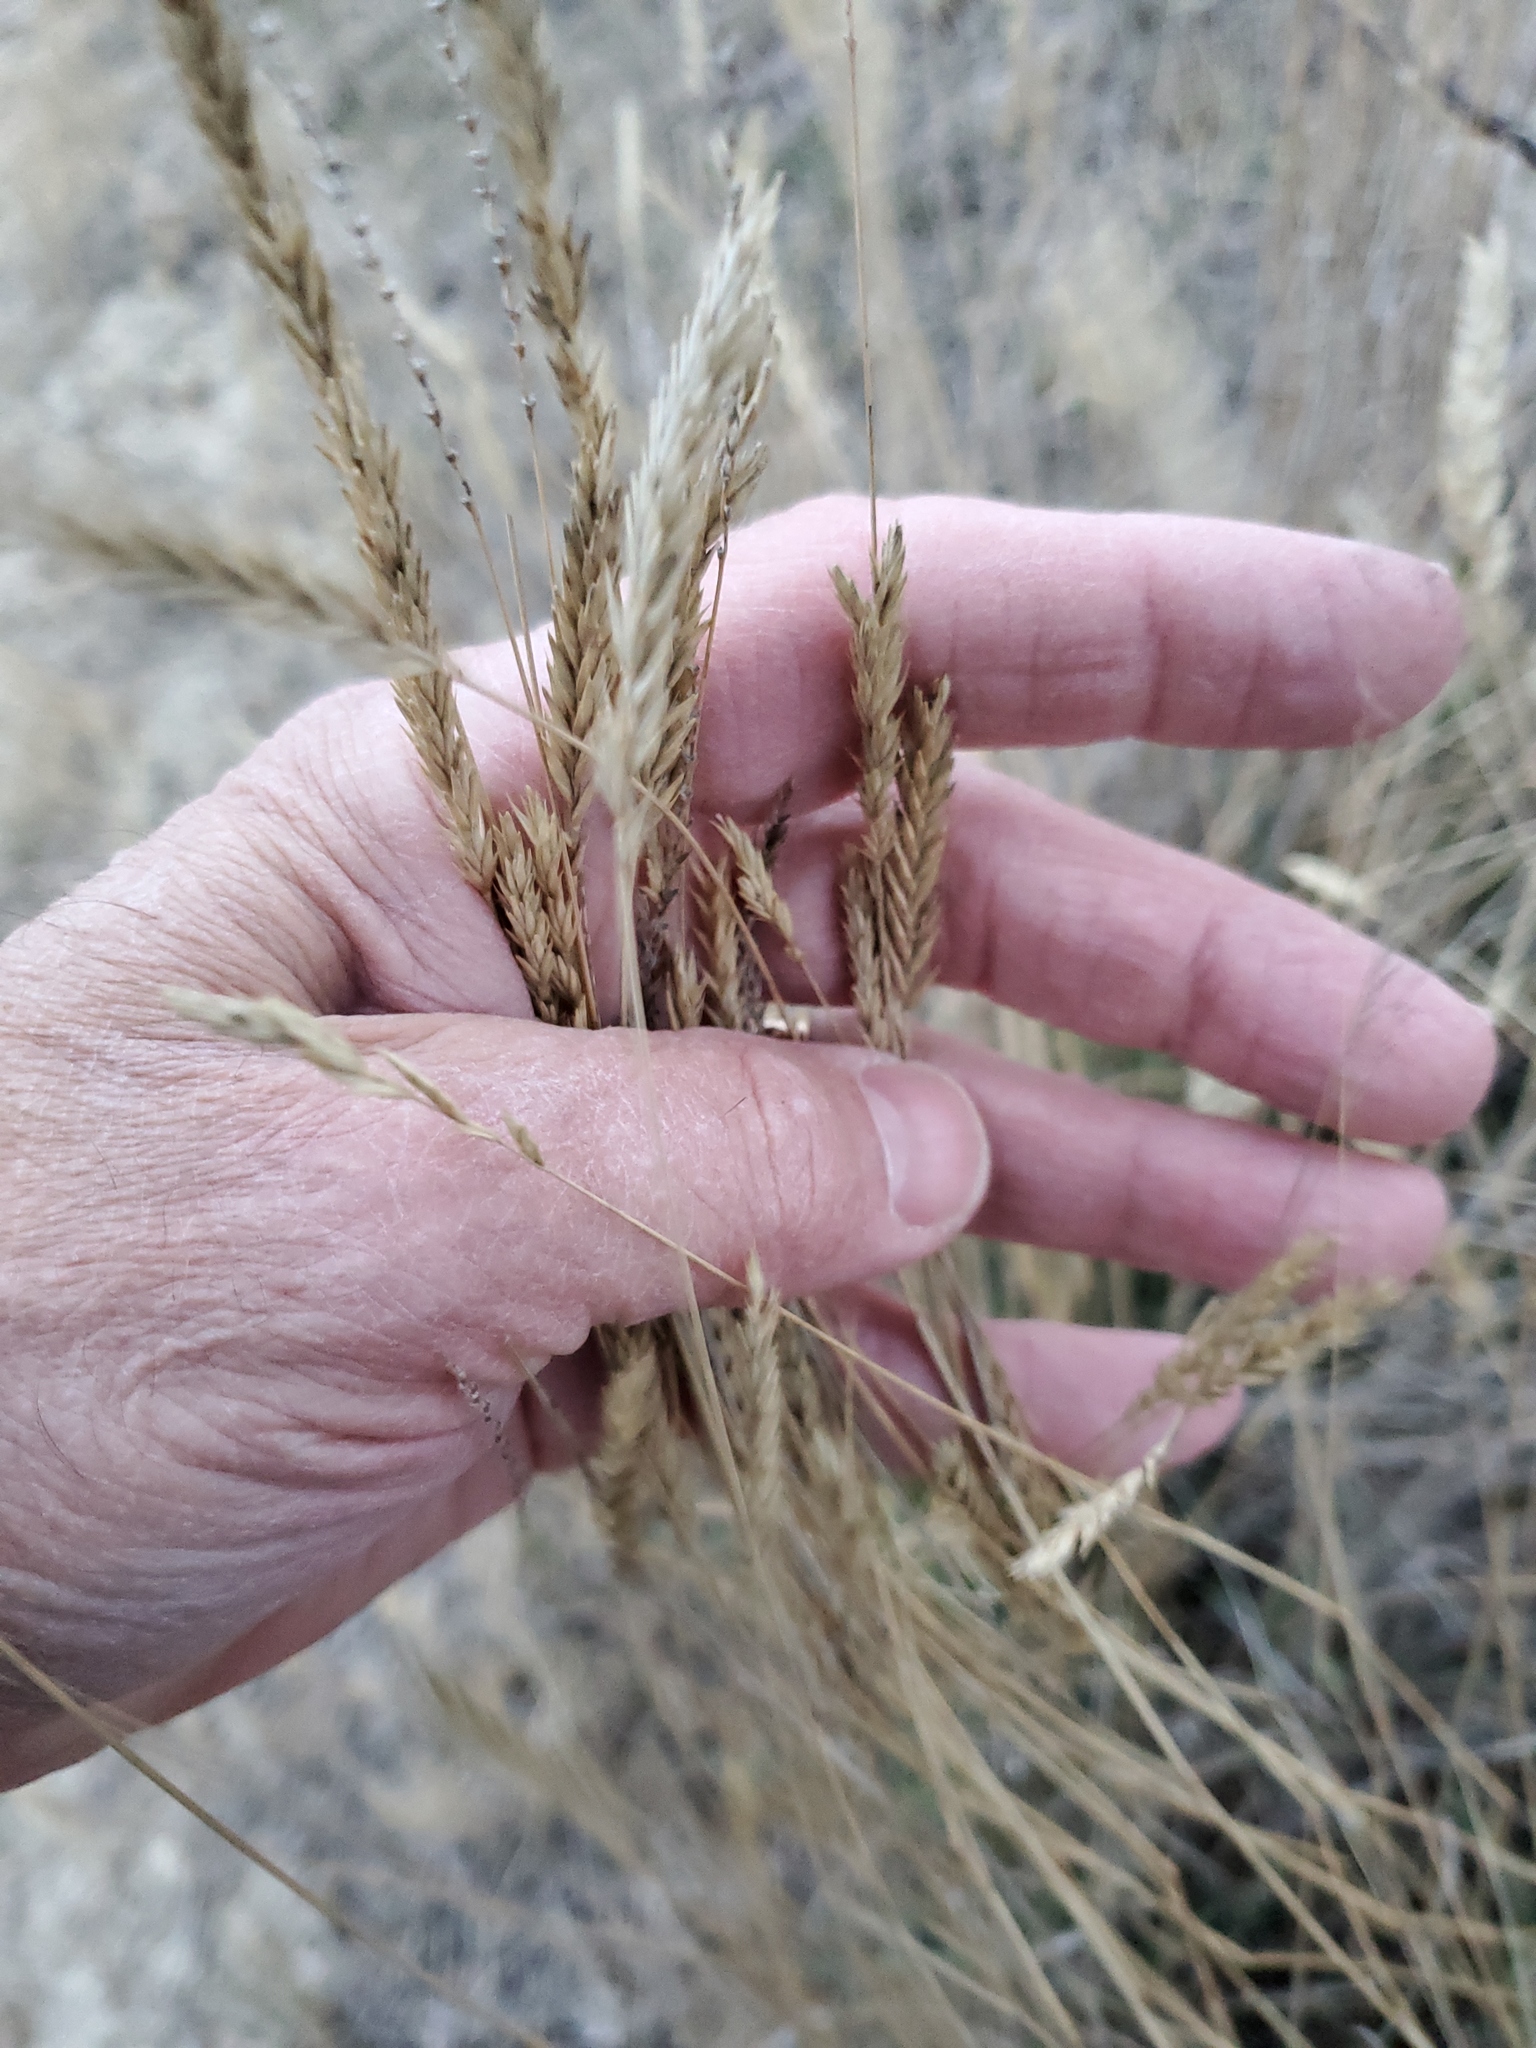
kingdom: Plantae
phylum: Tracheophyta
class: Liliopsida
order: Poales
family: Poaceae
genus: Agropyron
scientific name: Agropyron cristatum
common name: Crested wheatgrass
